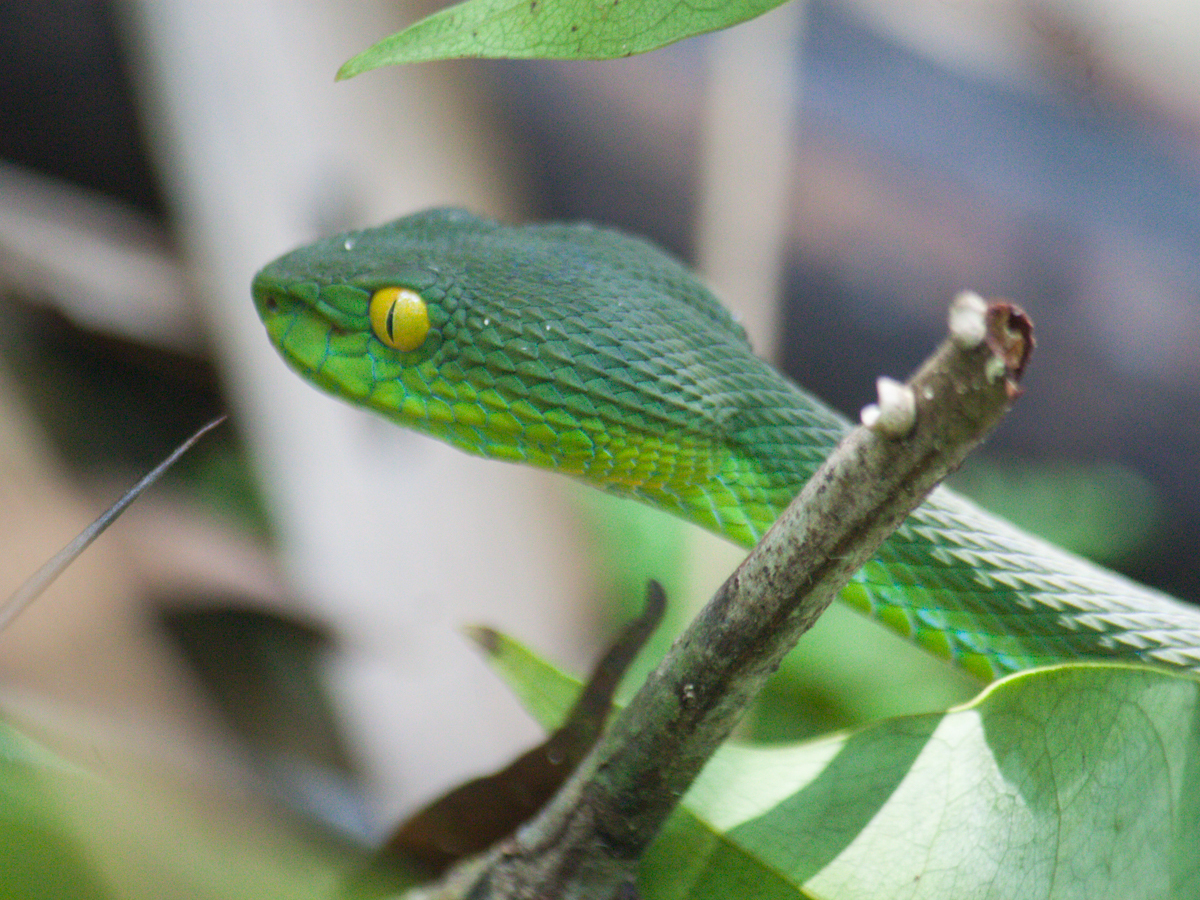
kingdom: Animalia
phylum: Chordata
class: Squamata
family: Viperidae
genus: Trimeresurus
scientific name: Trimeresurus cardamomensis
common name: Cardamom mountains green pitviper
